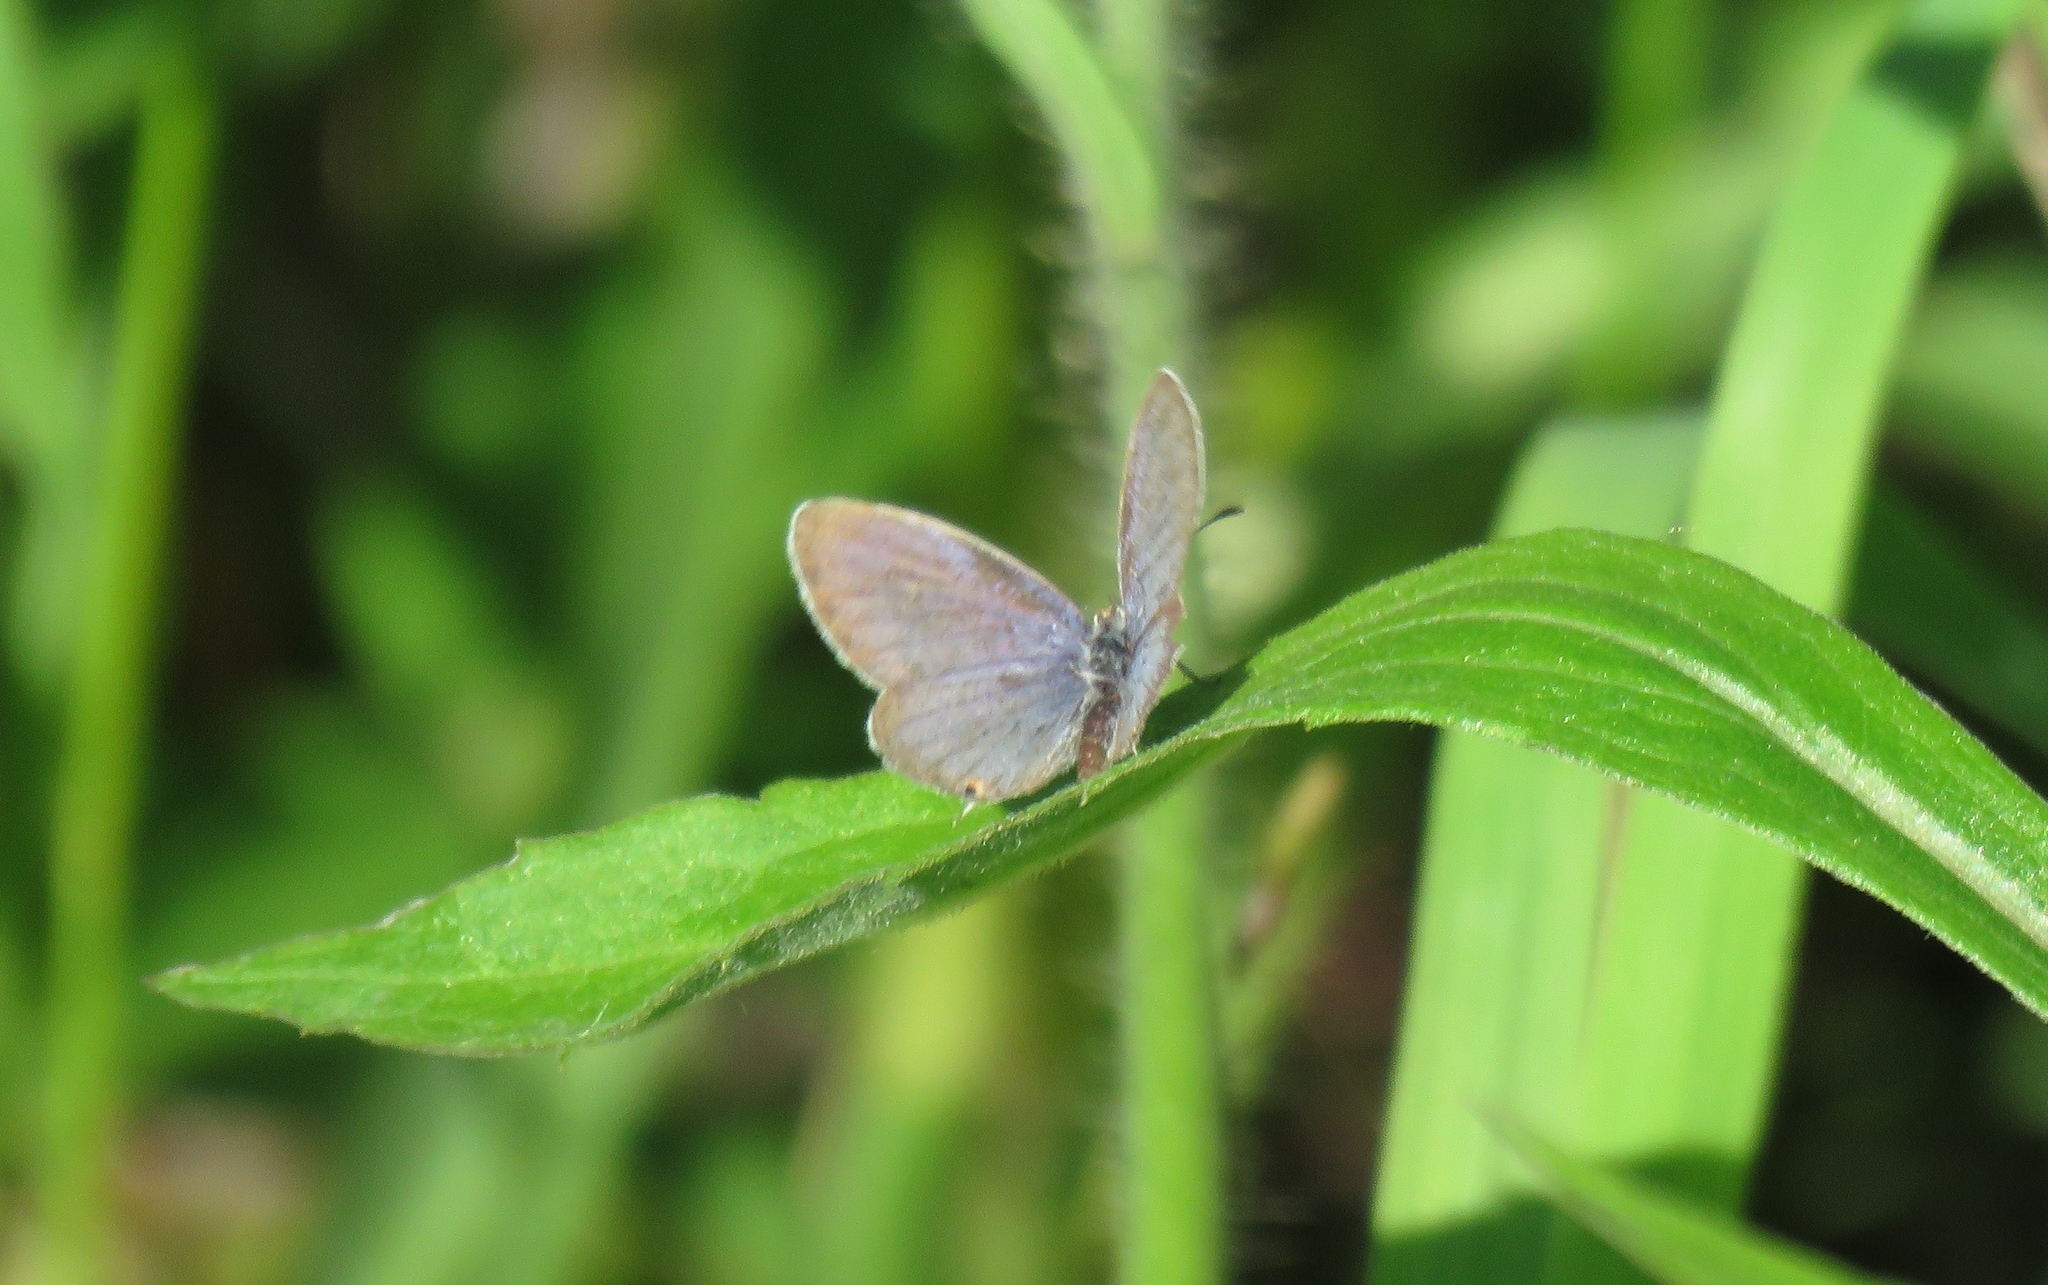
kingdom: Animalia
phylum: Arthropoda
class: Insecta
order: Lepidoptera
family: Lycaenidae
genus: Elkalyce
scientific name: Elkalyce comyntas
